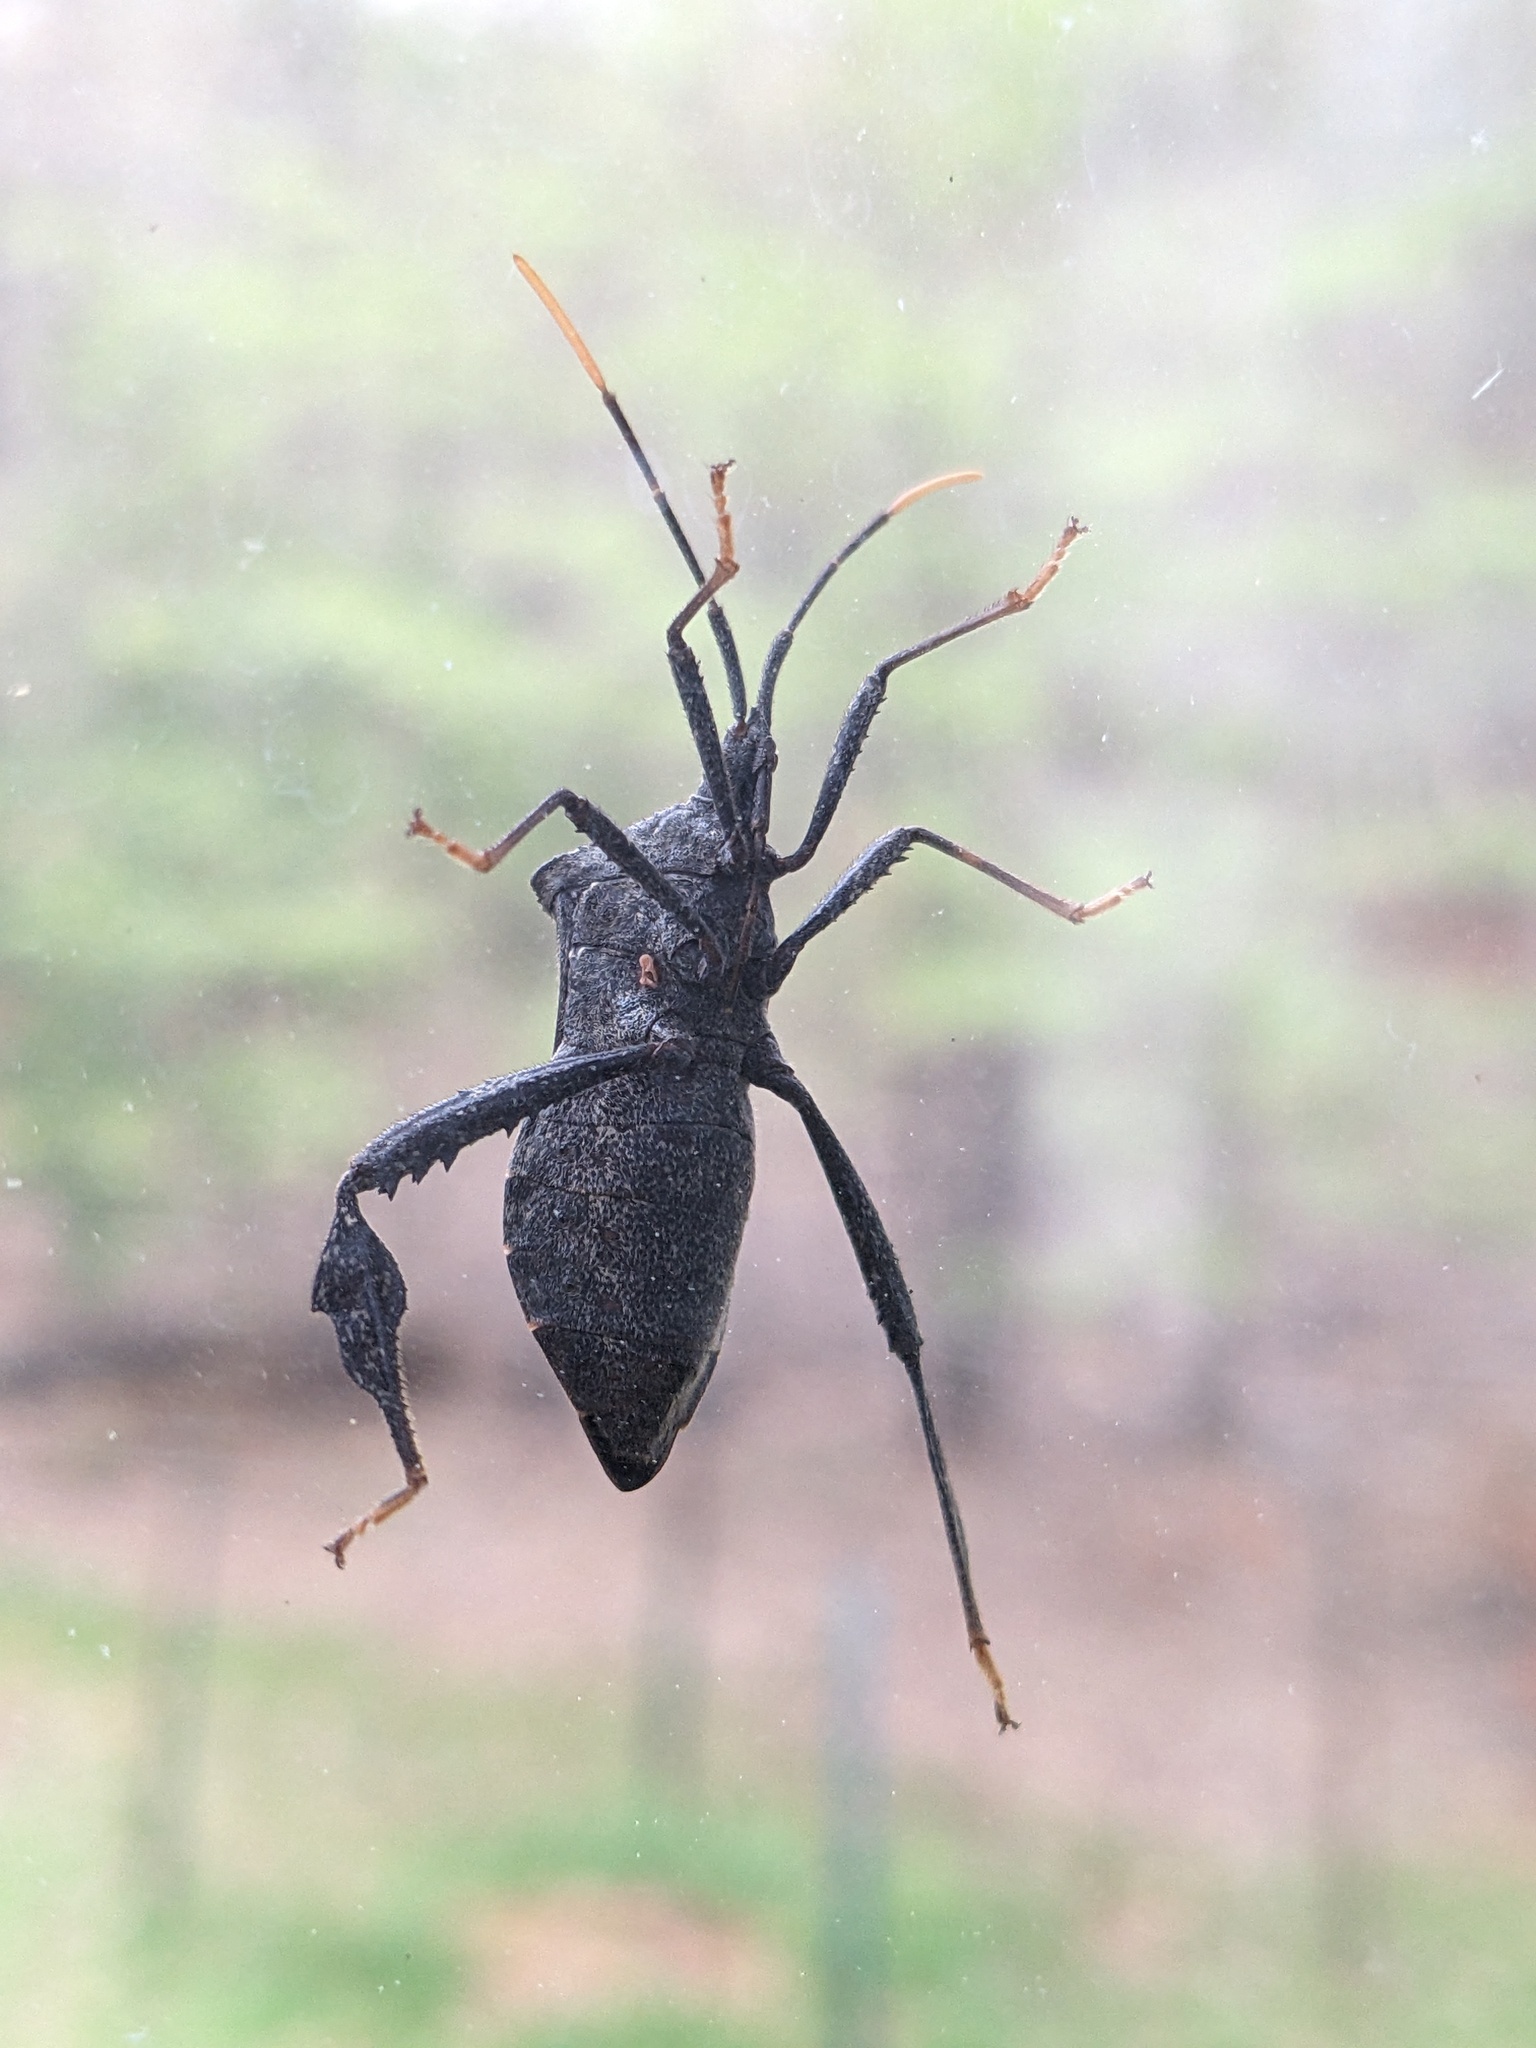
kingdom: Animalia
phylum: Arthropoda
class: Insecta
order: Hemiptera
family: Coreidae
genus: Acanthocephala
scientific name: Acanthocephala terminalis
